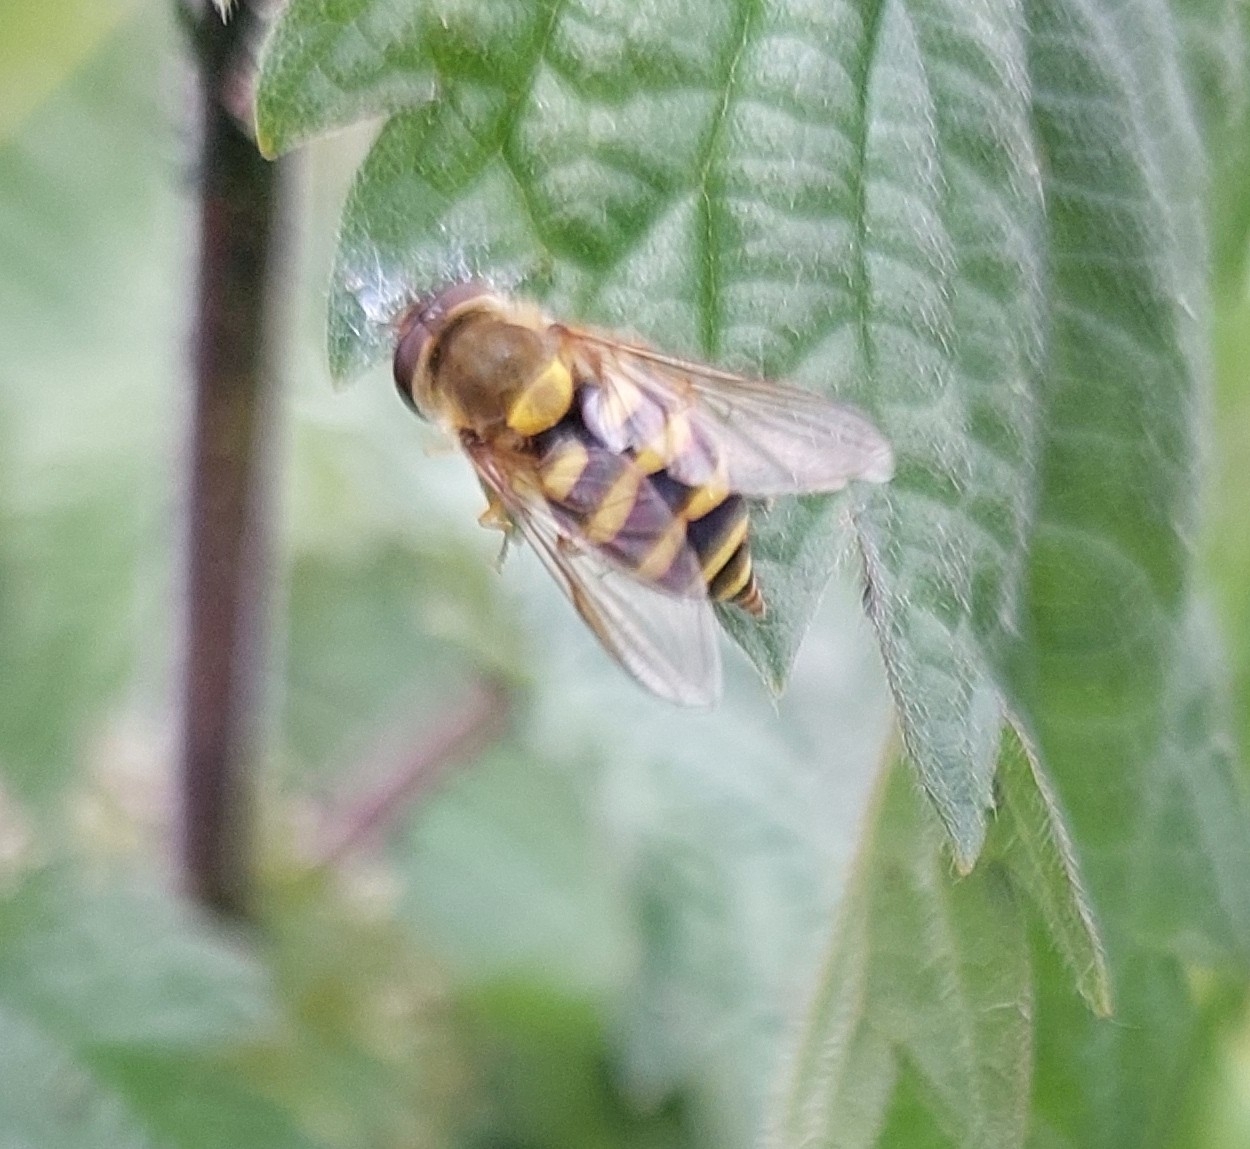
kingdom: Animalia
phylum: Arthropoda
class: Insecta
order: Diptera
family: Syrphidae
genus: Syrphus
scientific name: Syrphus
